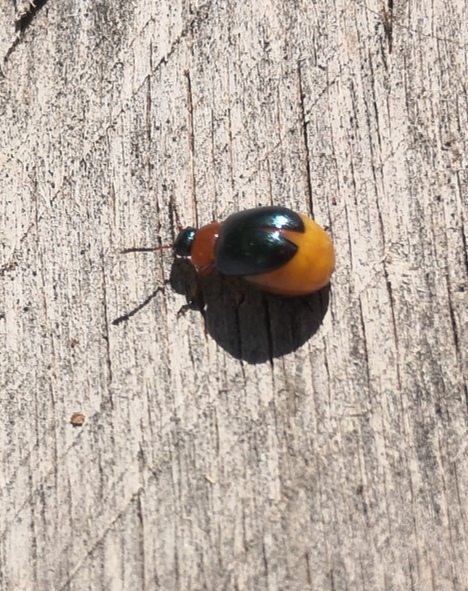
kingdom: Animalia
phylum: Arthropoda
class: Insecta
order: Coleoptera
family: Chrysomelidae
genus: Gastrophysa
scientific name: Gastrophysa polygoni
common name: Knotweed leaf beetle
